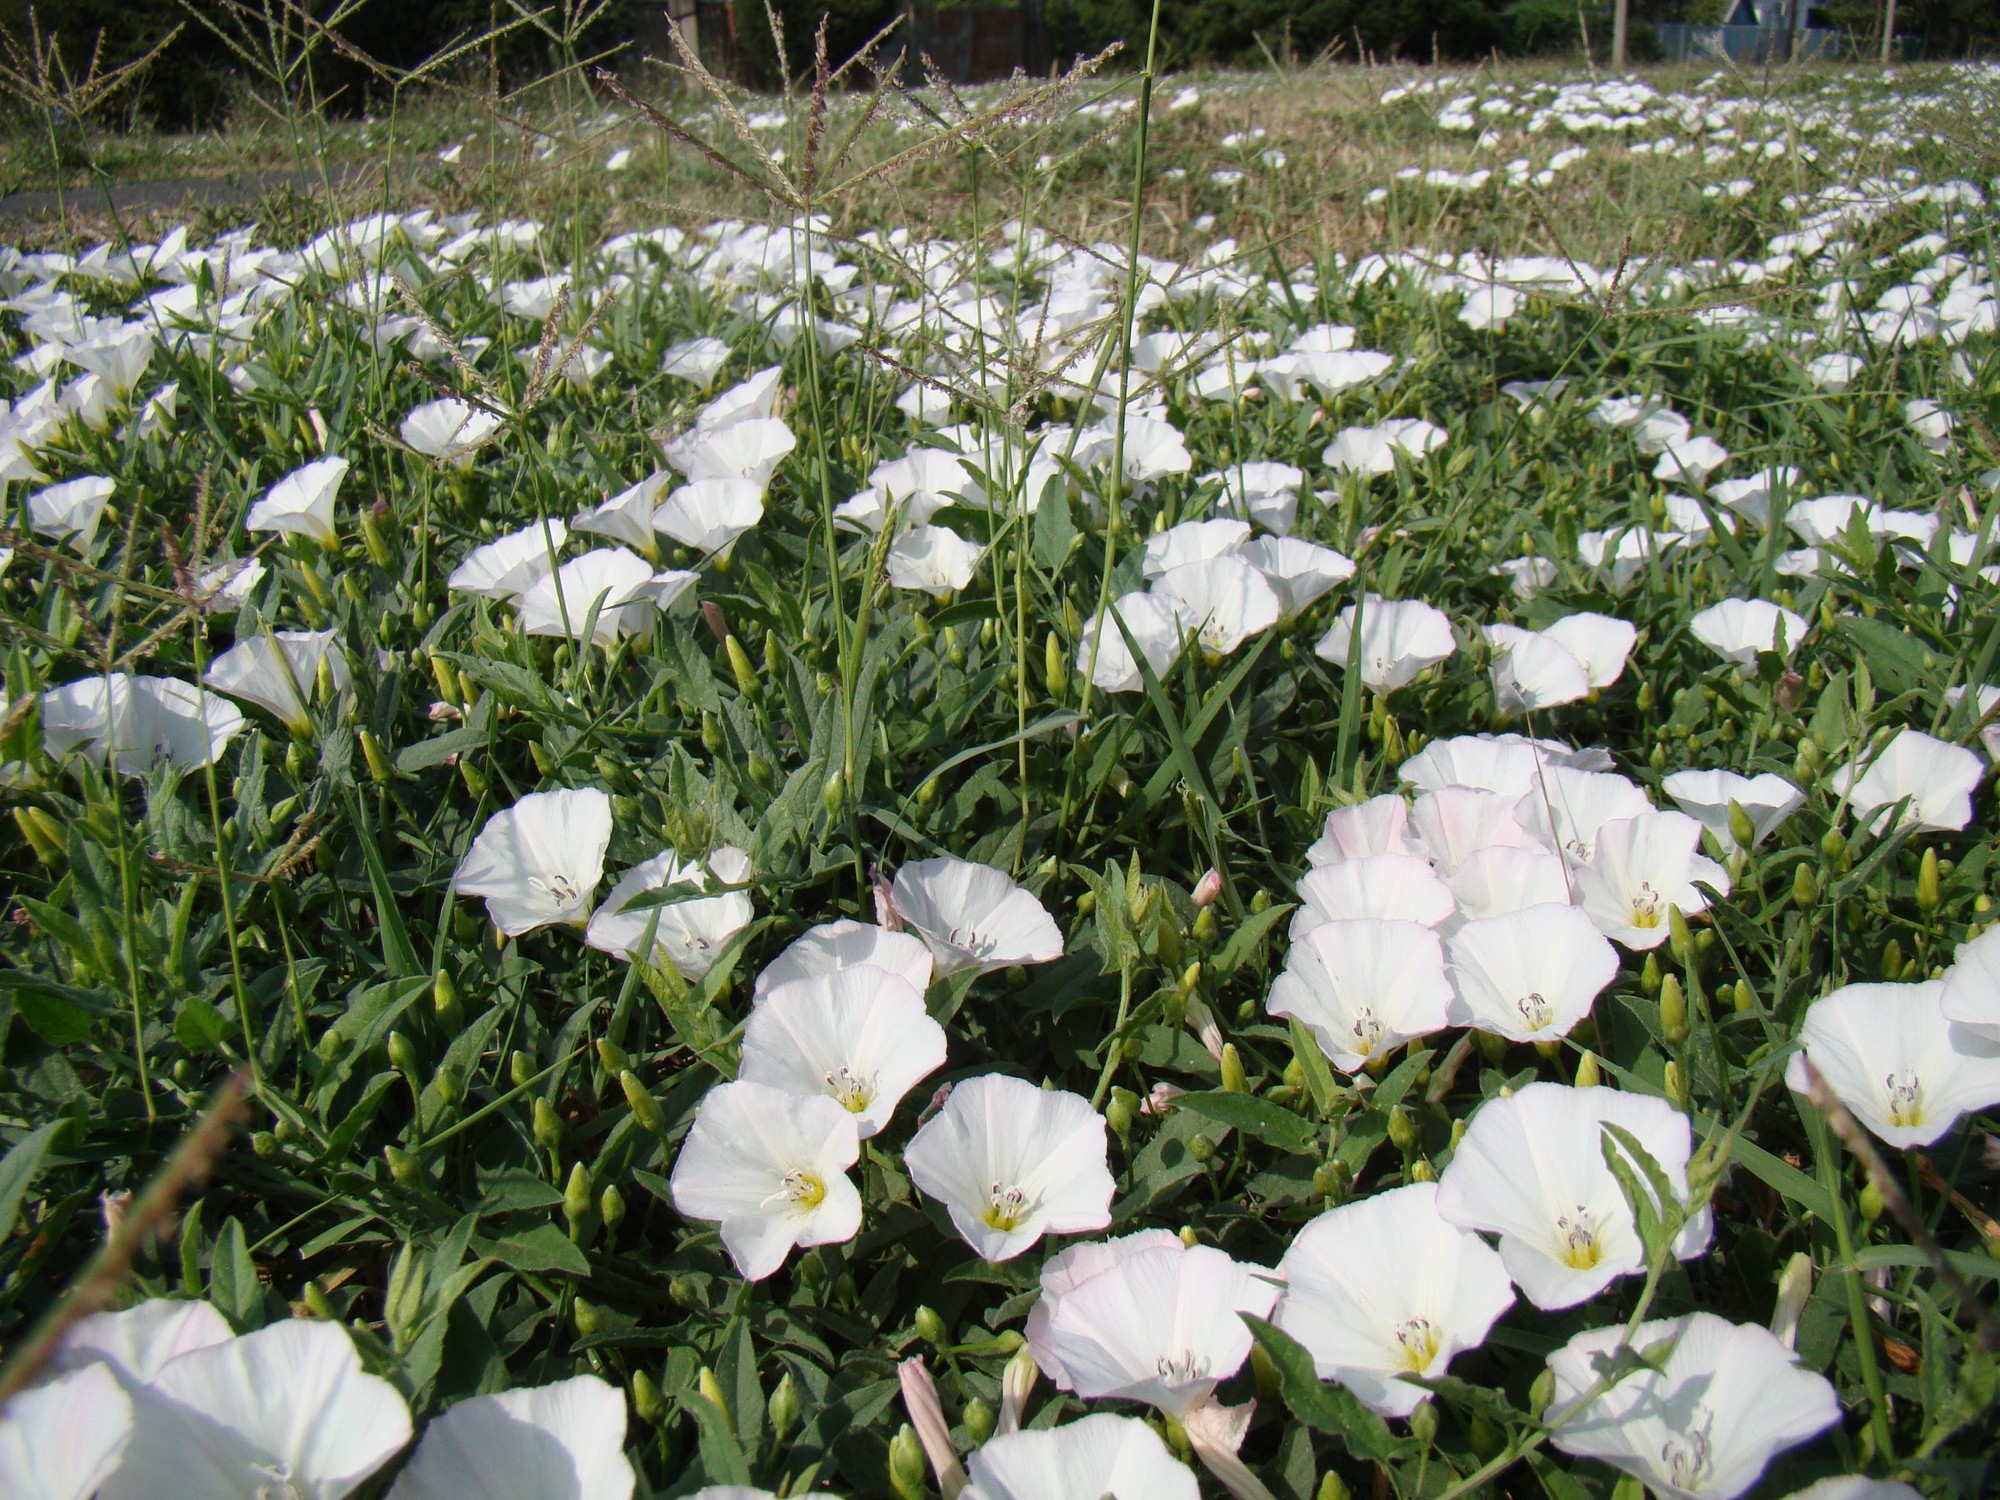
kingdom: Plantae
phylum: Tracheophyta
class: Magnoliopsida
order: Solanales
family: Convolvulaceae
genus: Convolvulus
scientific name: Convolvulus arvensis
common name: Field bindweed
